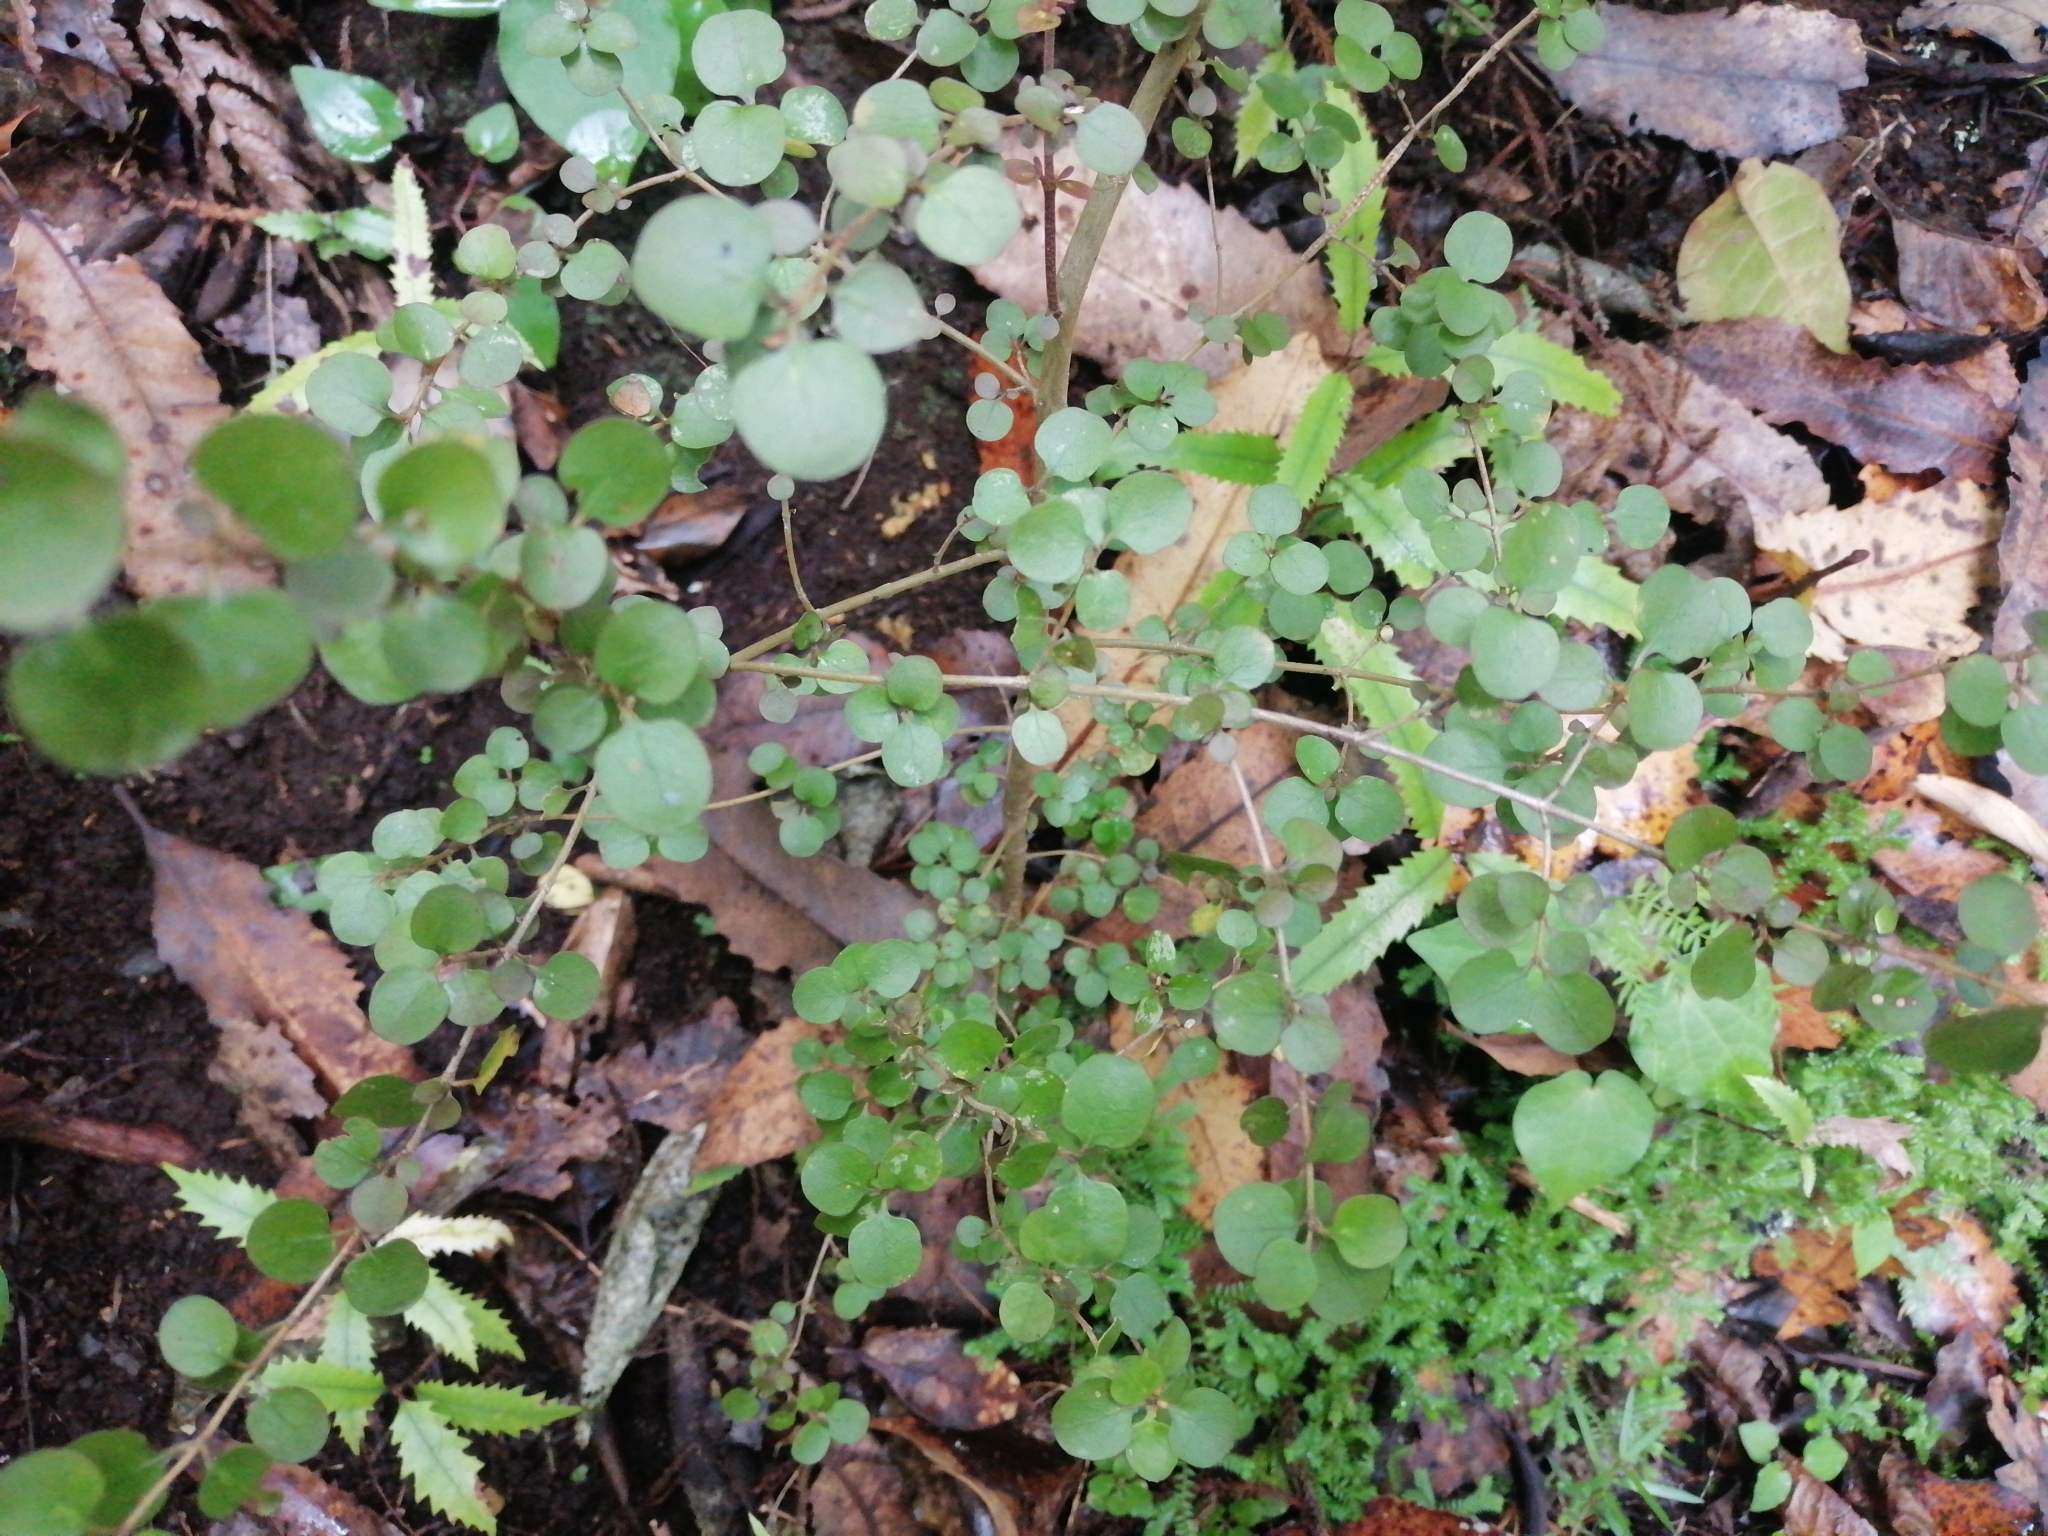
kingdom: Plantae
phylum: Tracheophyta
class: Magnoliopsida
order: Gentianales
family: Rubiaceae
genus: Coprosma
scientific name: Coprosma rhamnoides
